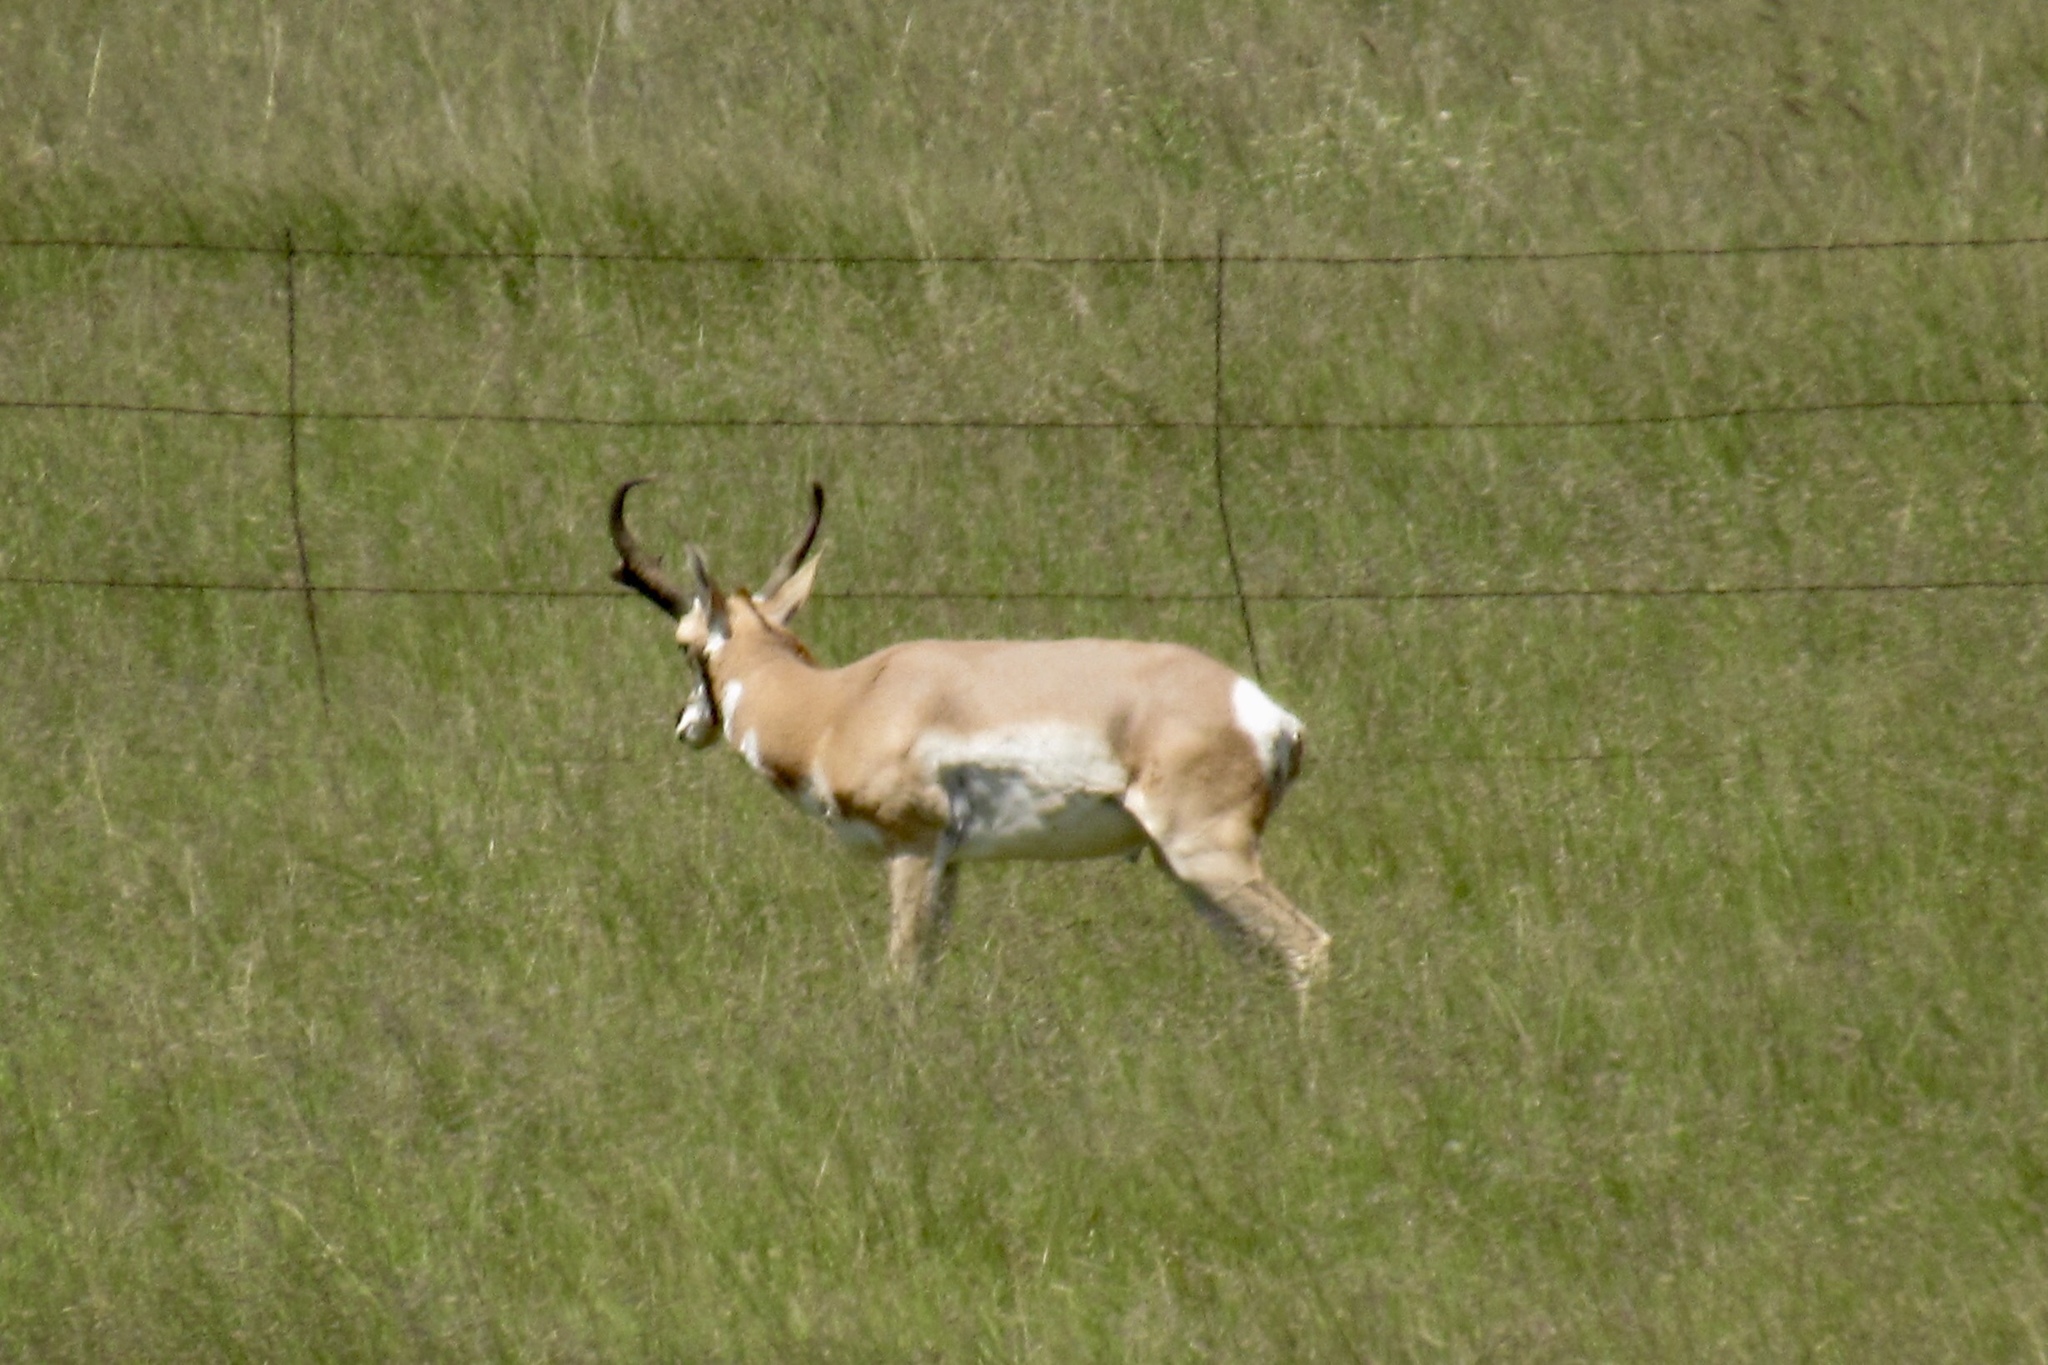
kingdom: Animalia
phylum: Chordata
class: Mammalia
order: Artiodactyla
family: Antilocapridae
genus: Antilocapra
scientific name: Antilocapra americana
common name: Pronghorn
